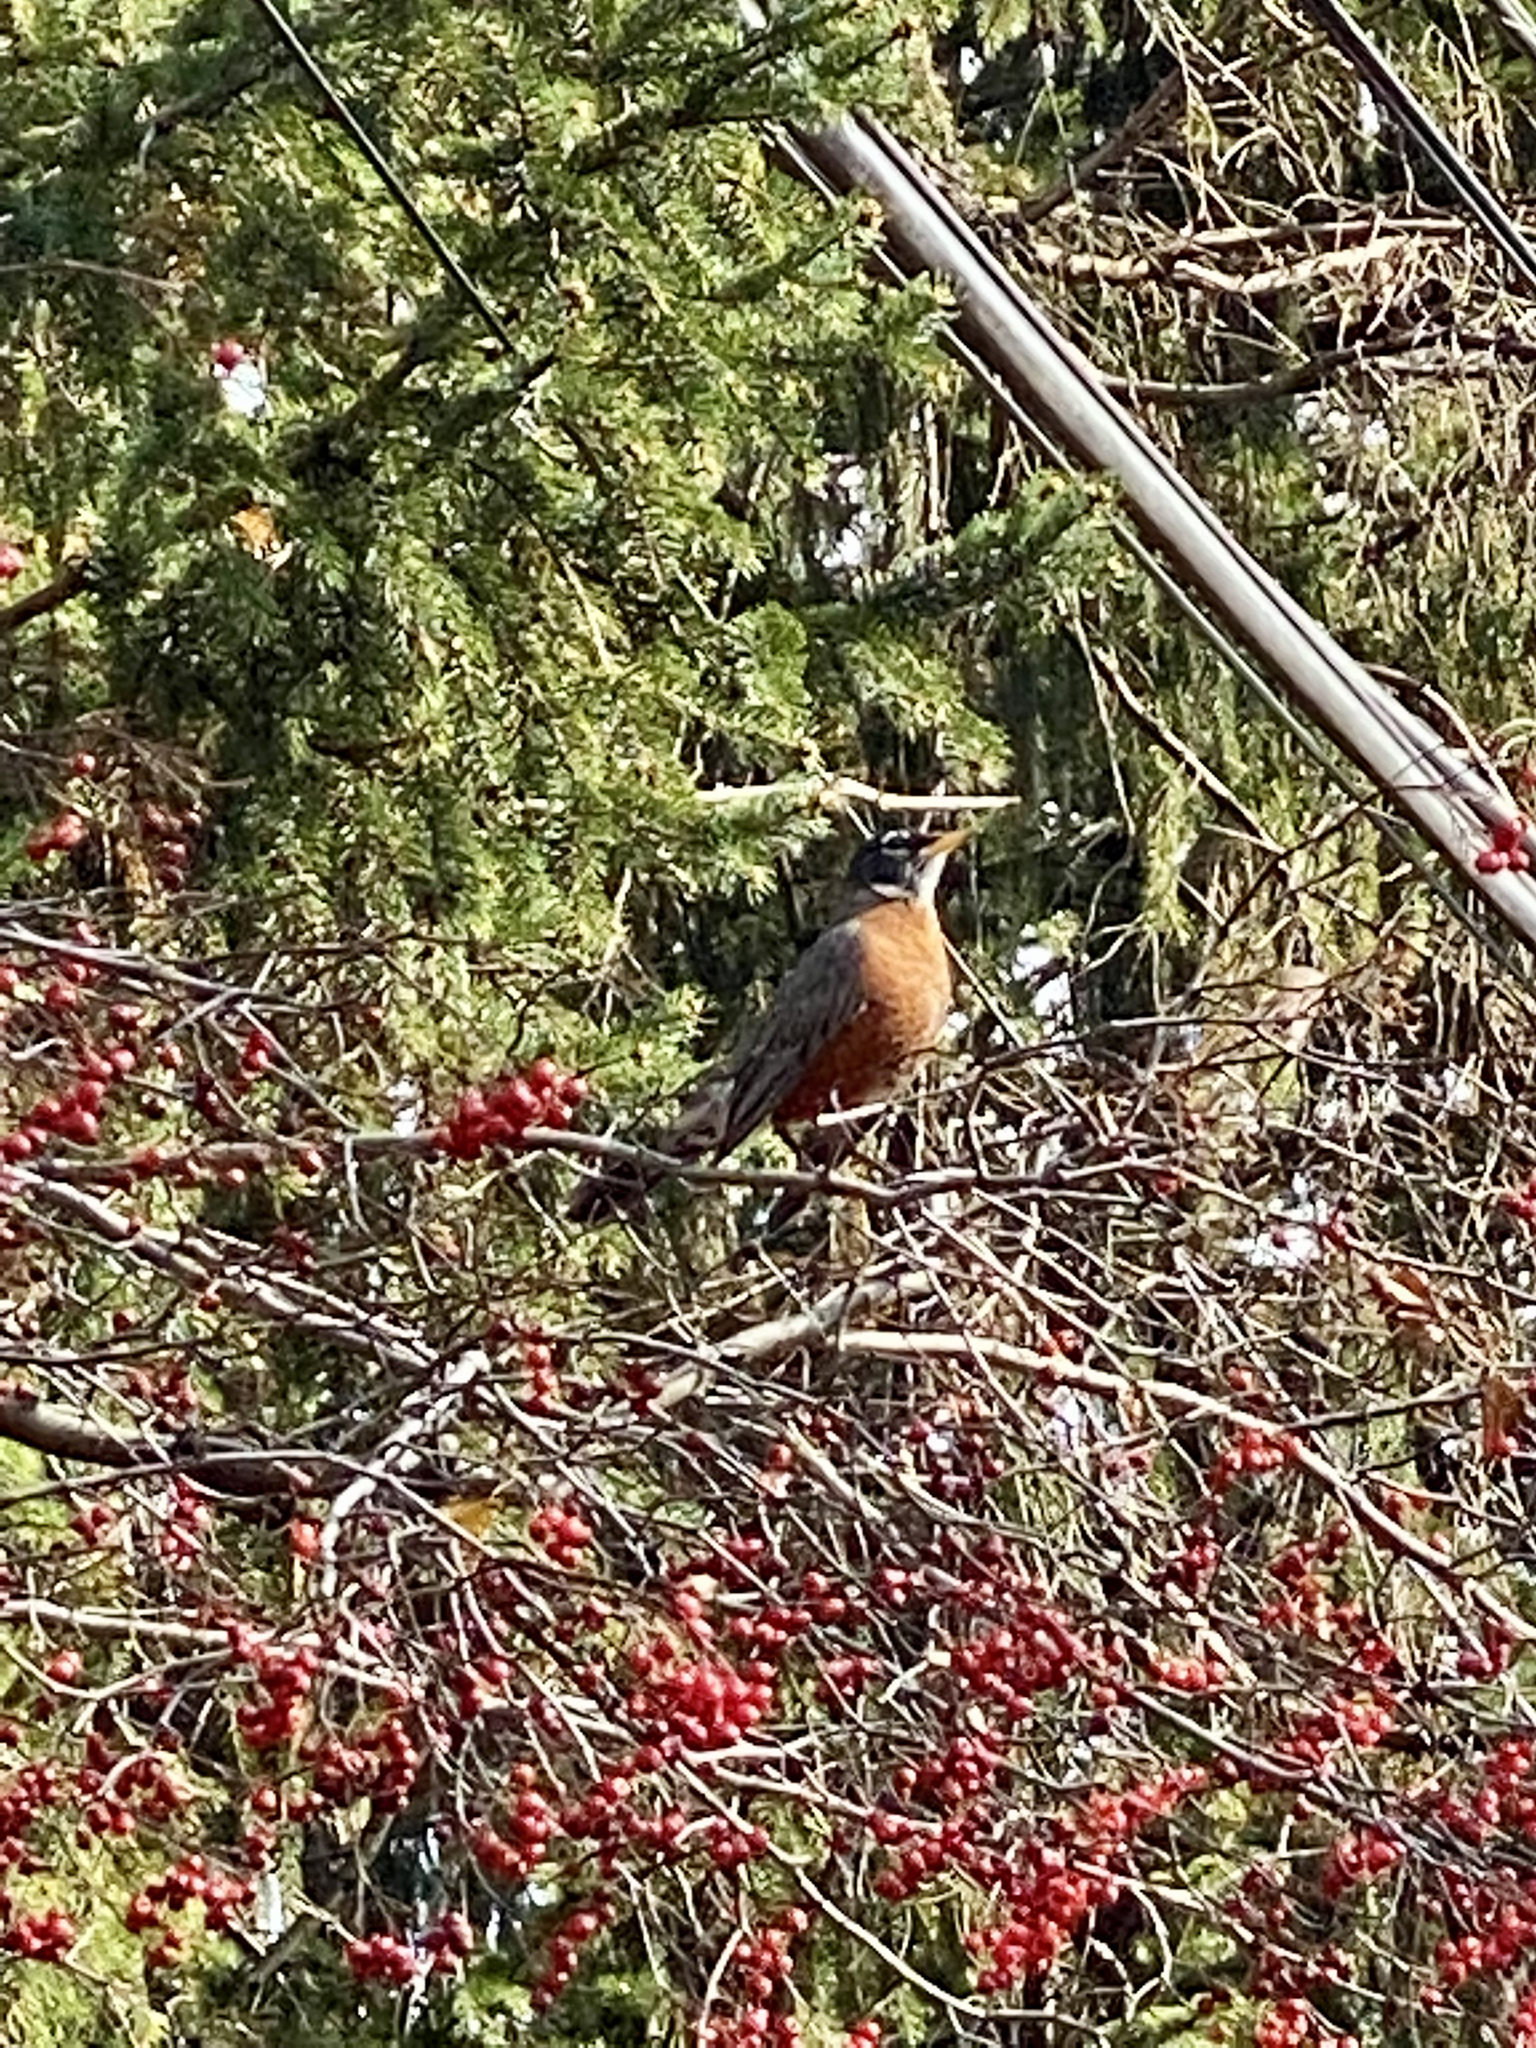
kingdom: Animalia
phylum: Chordata
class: Aves
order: Passeriformes
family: Turdidae
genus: Turdus
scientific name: Turdus migratorius
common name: American robin
